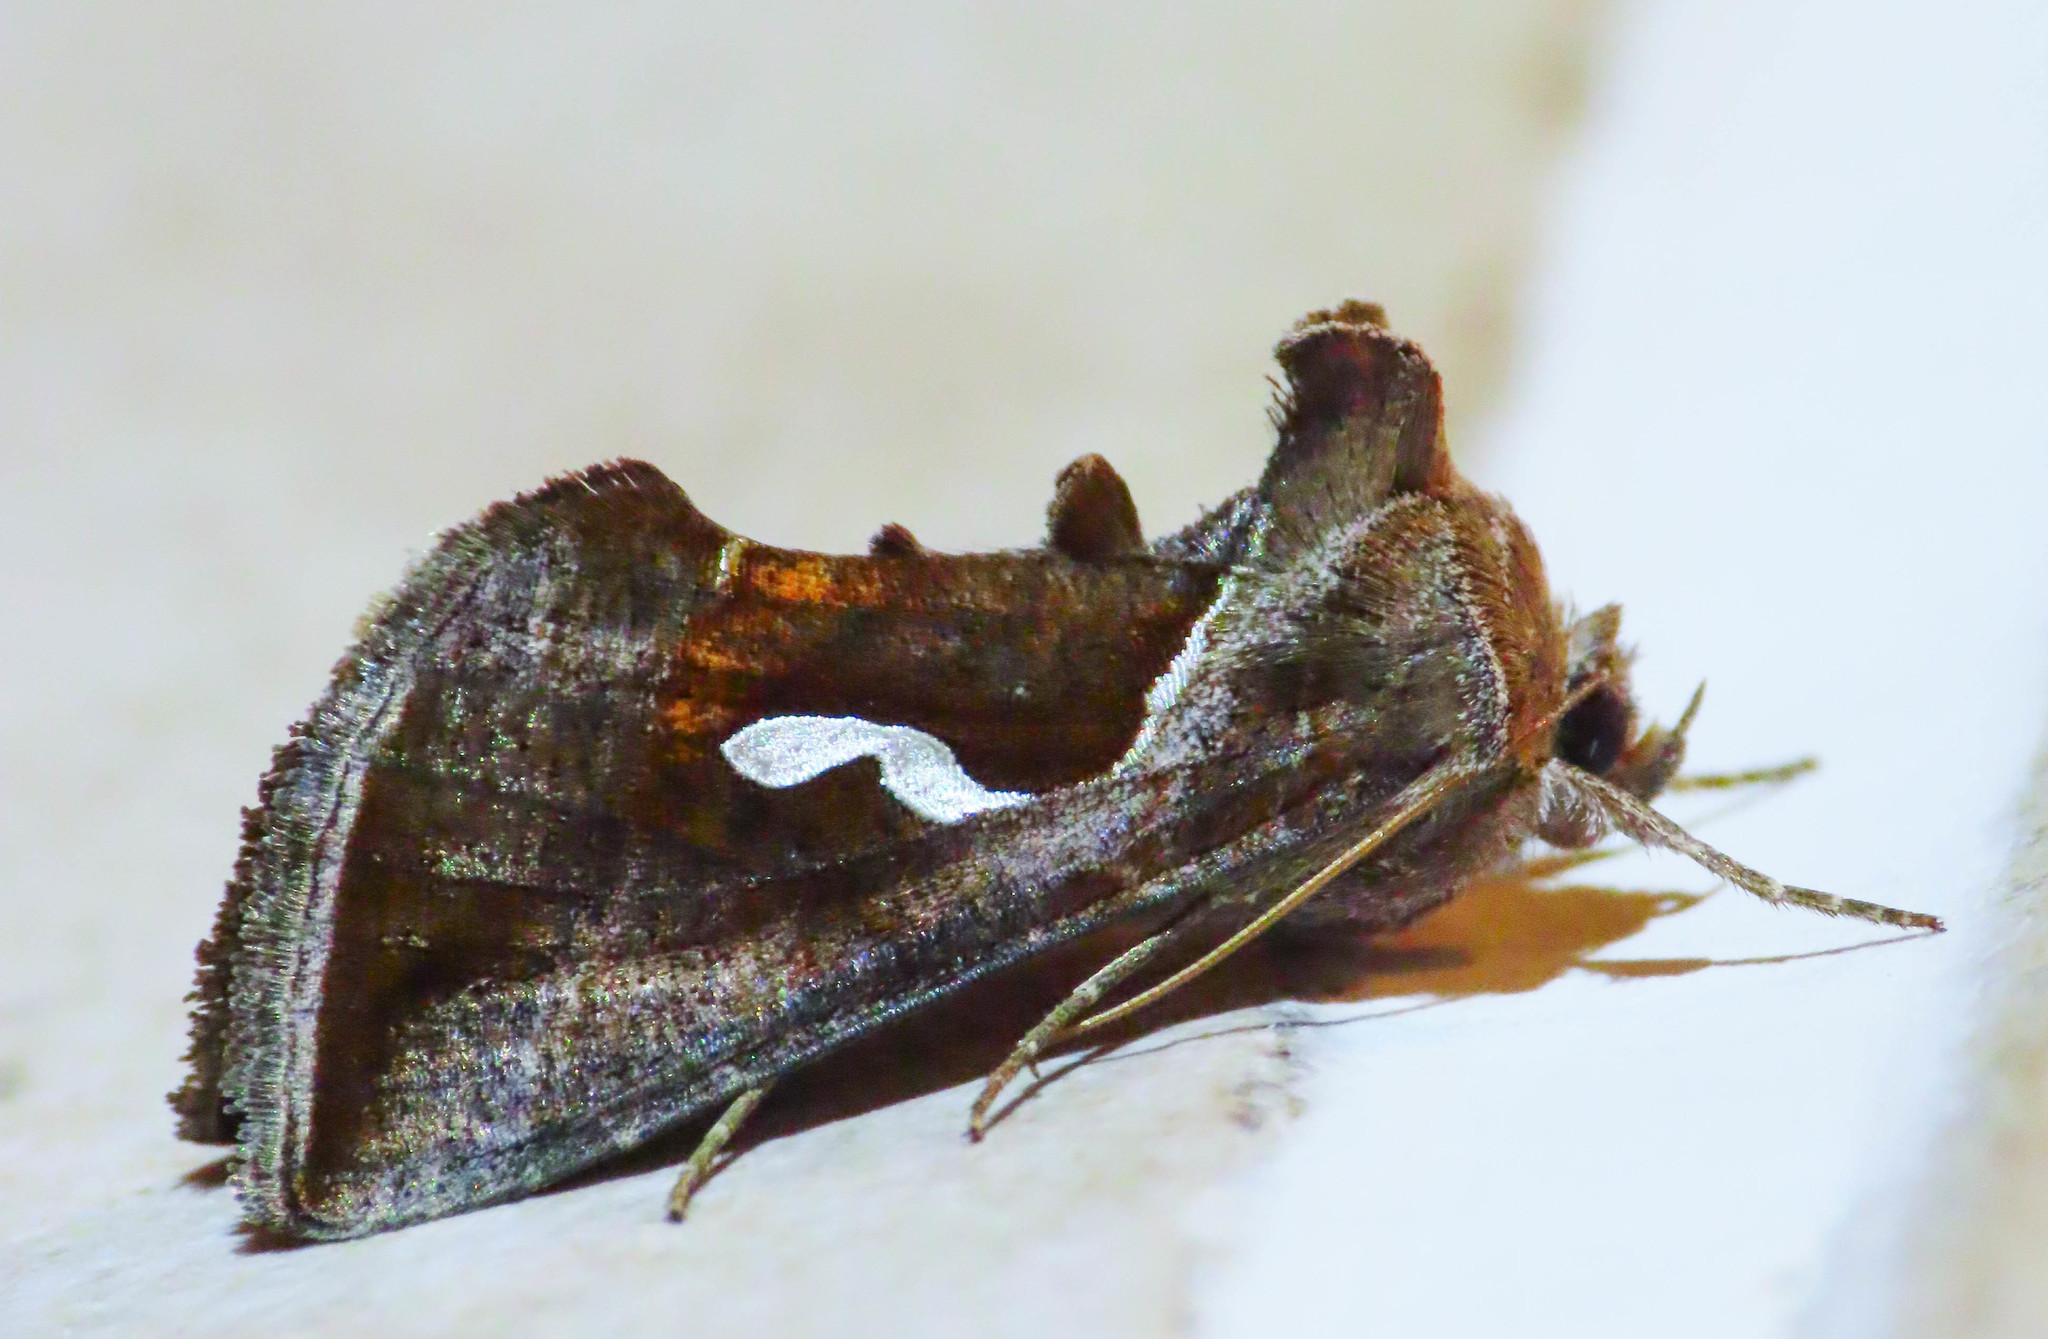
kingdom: Animalia
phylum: Arthropoda
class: Insecta
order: Lepidoptera
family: Noctuidae
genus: Macdunnoughia
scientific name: Macdunnoughia confusa
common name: Dewick's plusia
